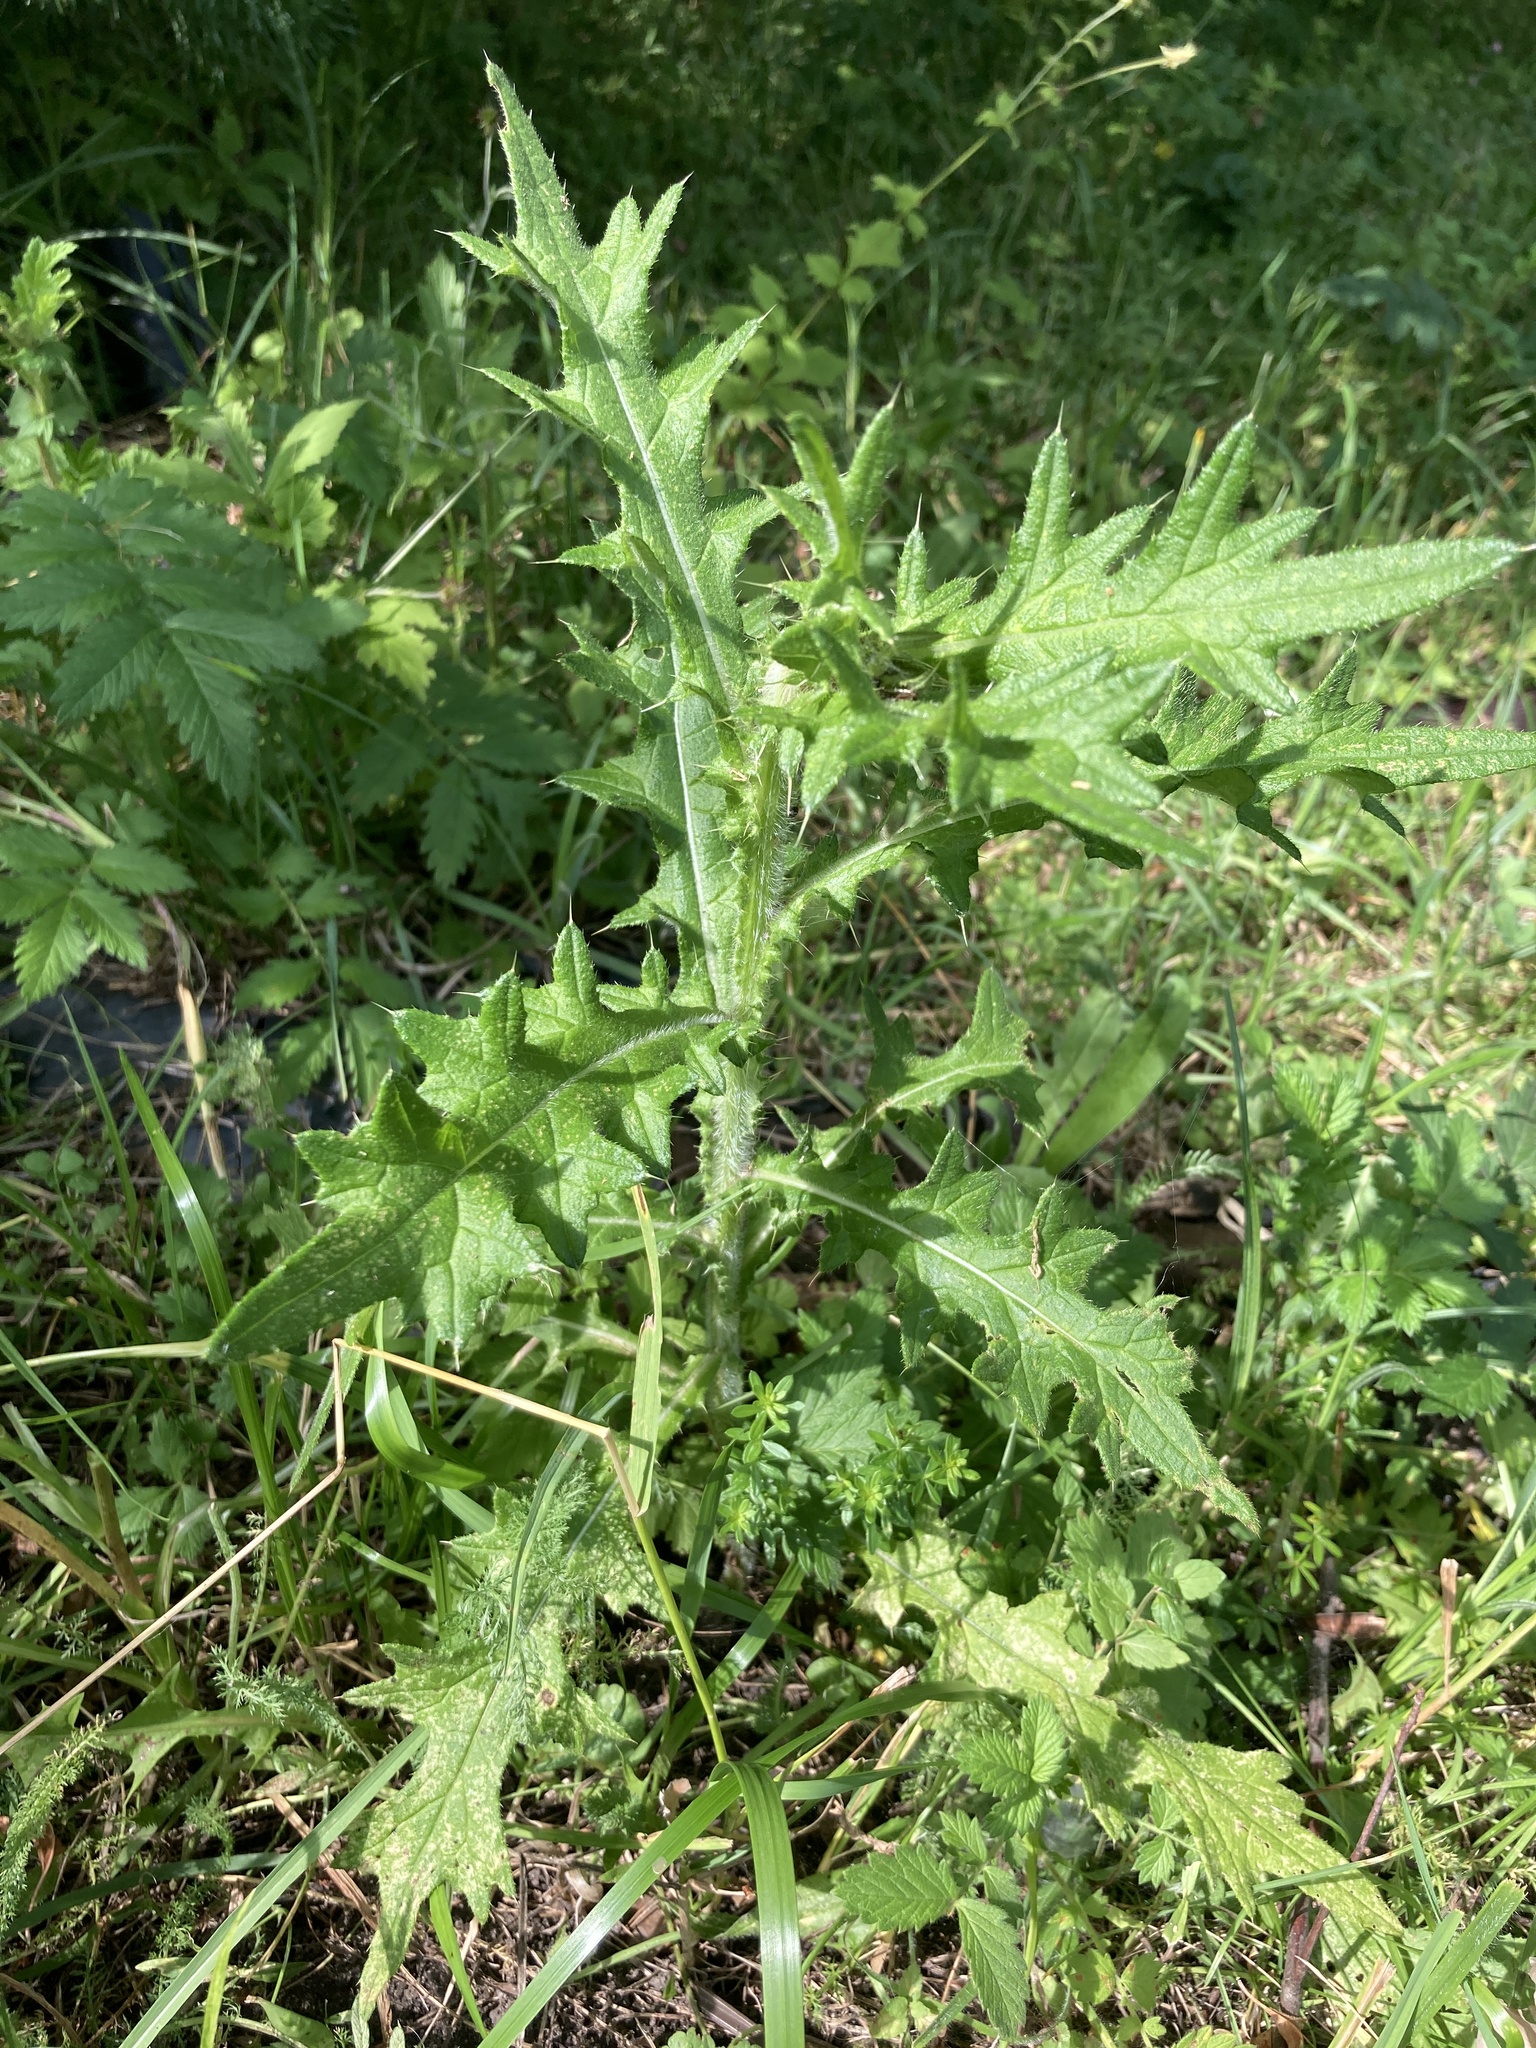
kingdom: Plantae
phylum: Tracheophyta
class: Magnoliopsida
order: Asterales
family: Asteraceae
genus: Cirsium
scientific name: Cirsium vulgare
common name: Bull thistle
